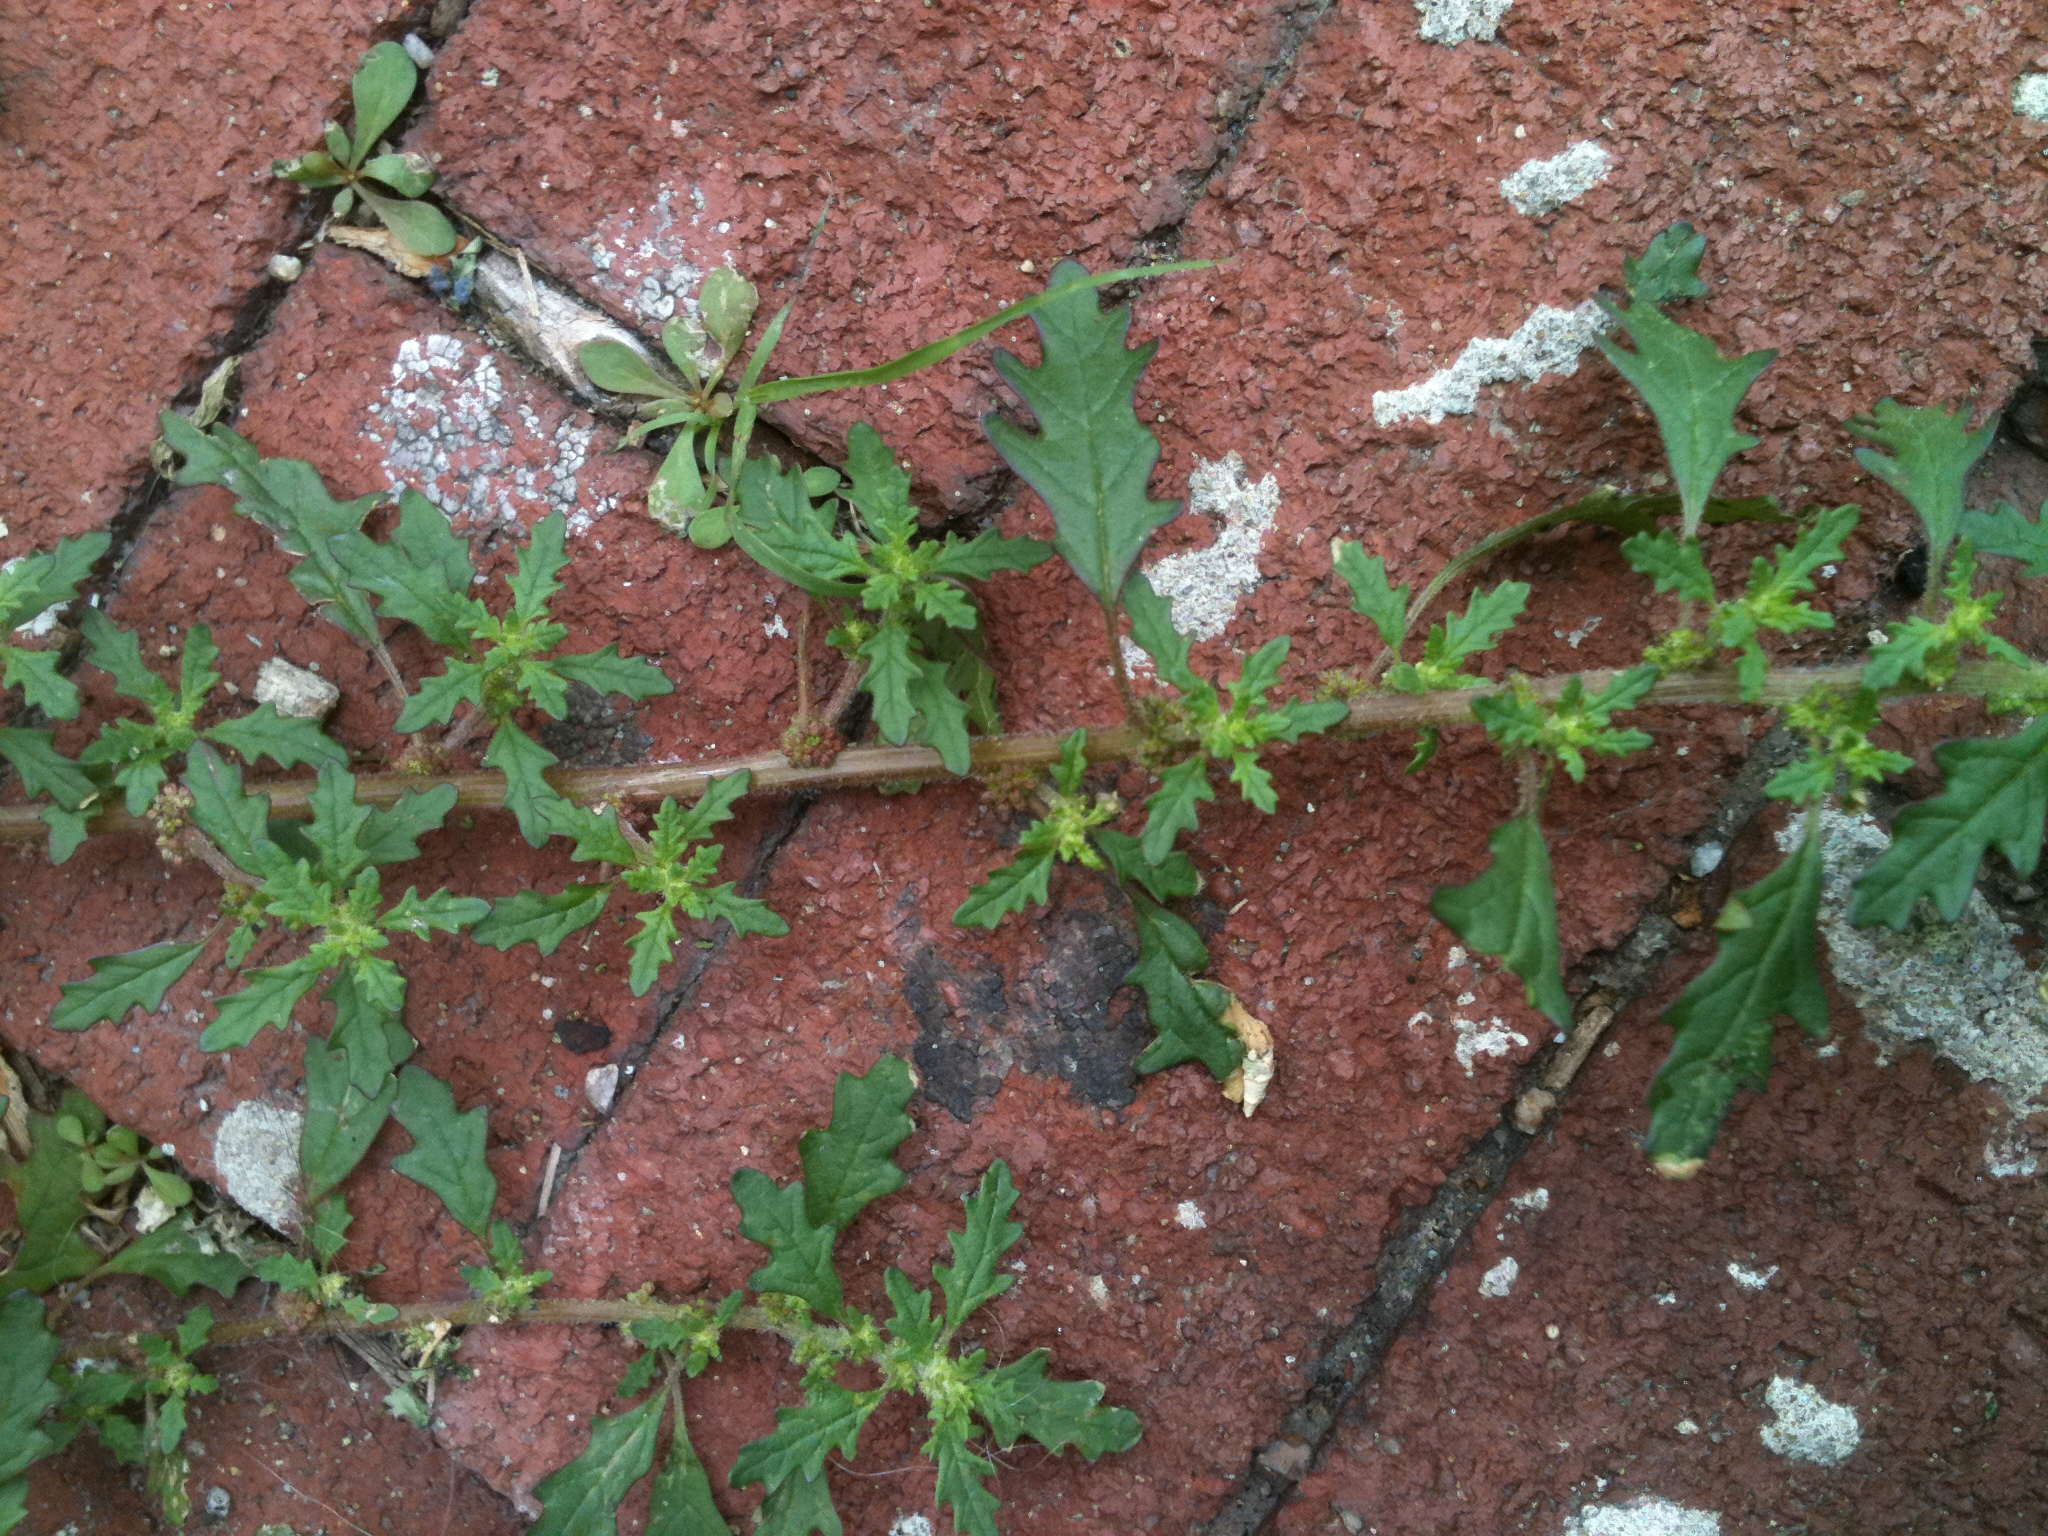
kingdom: Plantae
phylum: Tracheophyta
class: Magnoliopsida
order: Caryophyllales
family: Amaranthaceae
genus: Dysphania
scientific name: Dysphania pumilio
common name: Clammy goosefoot
